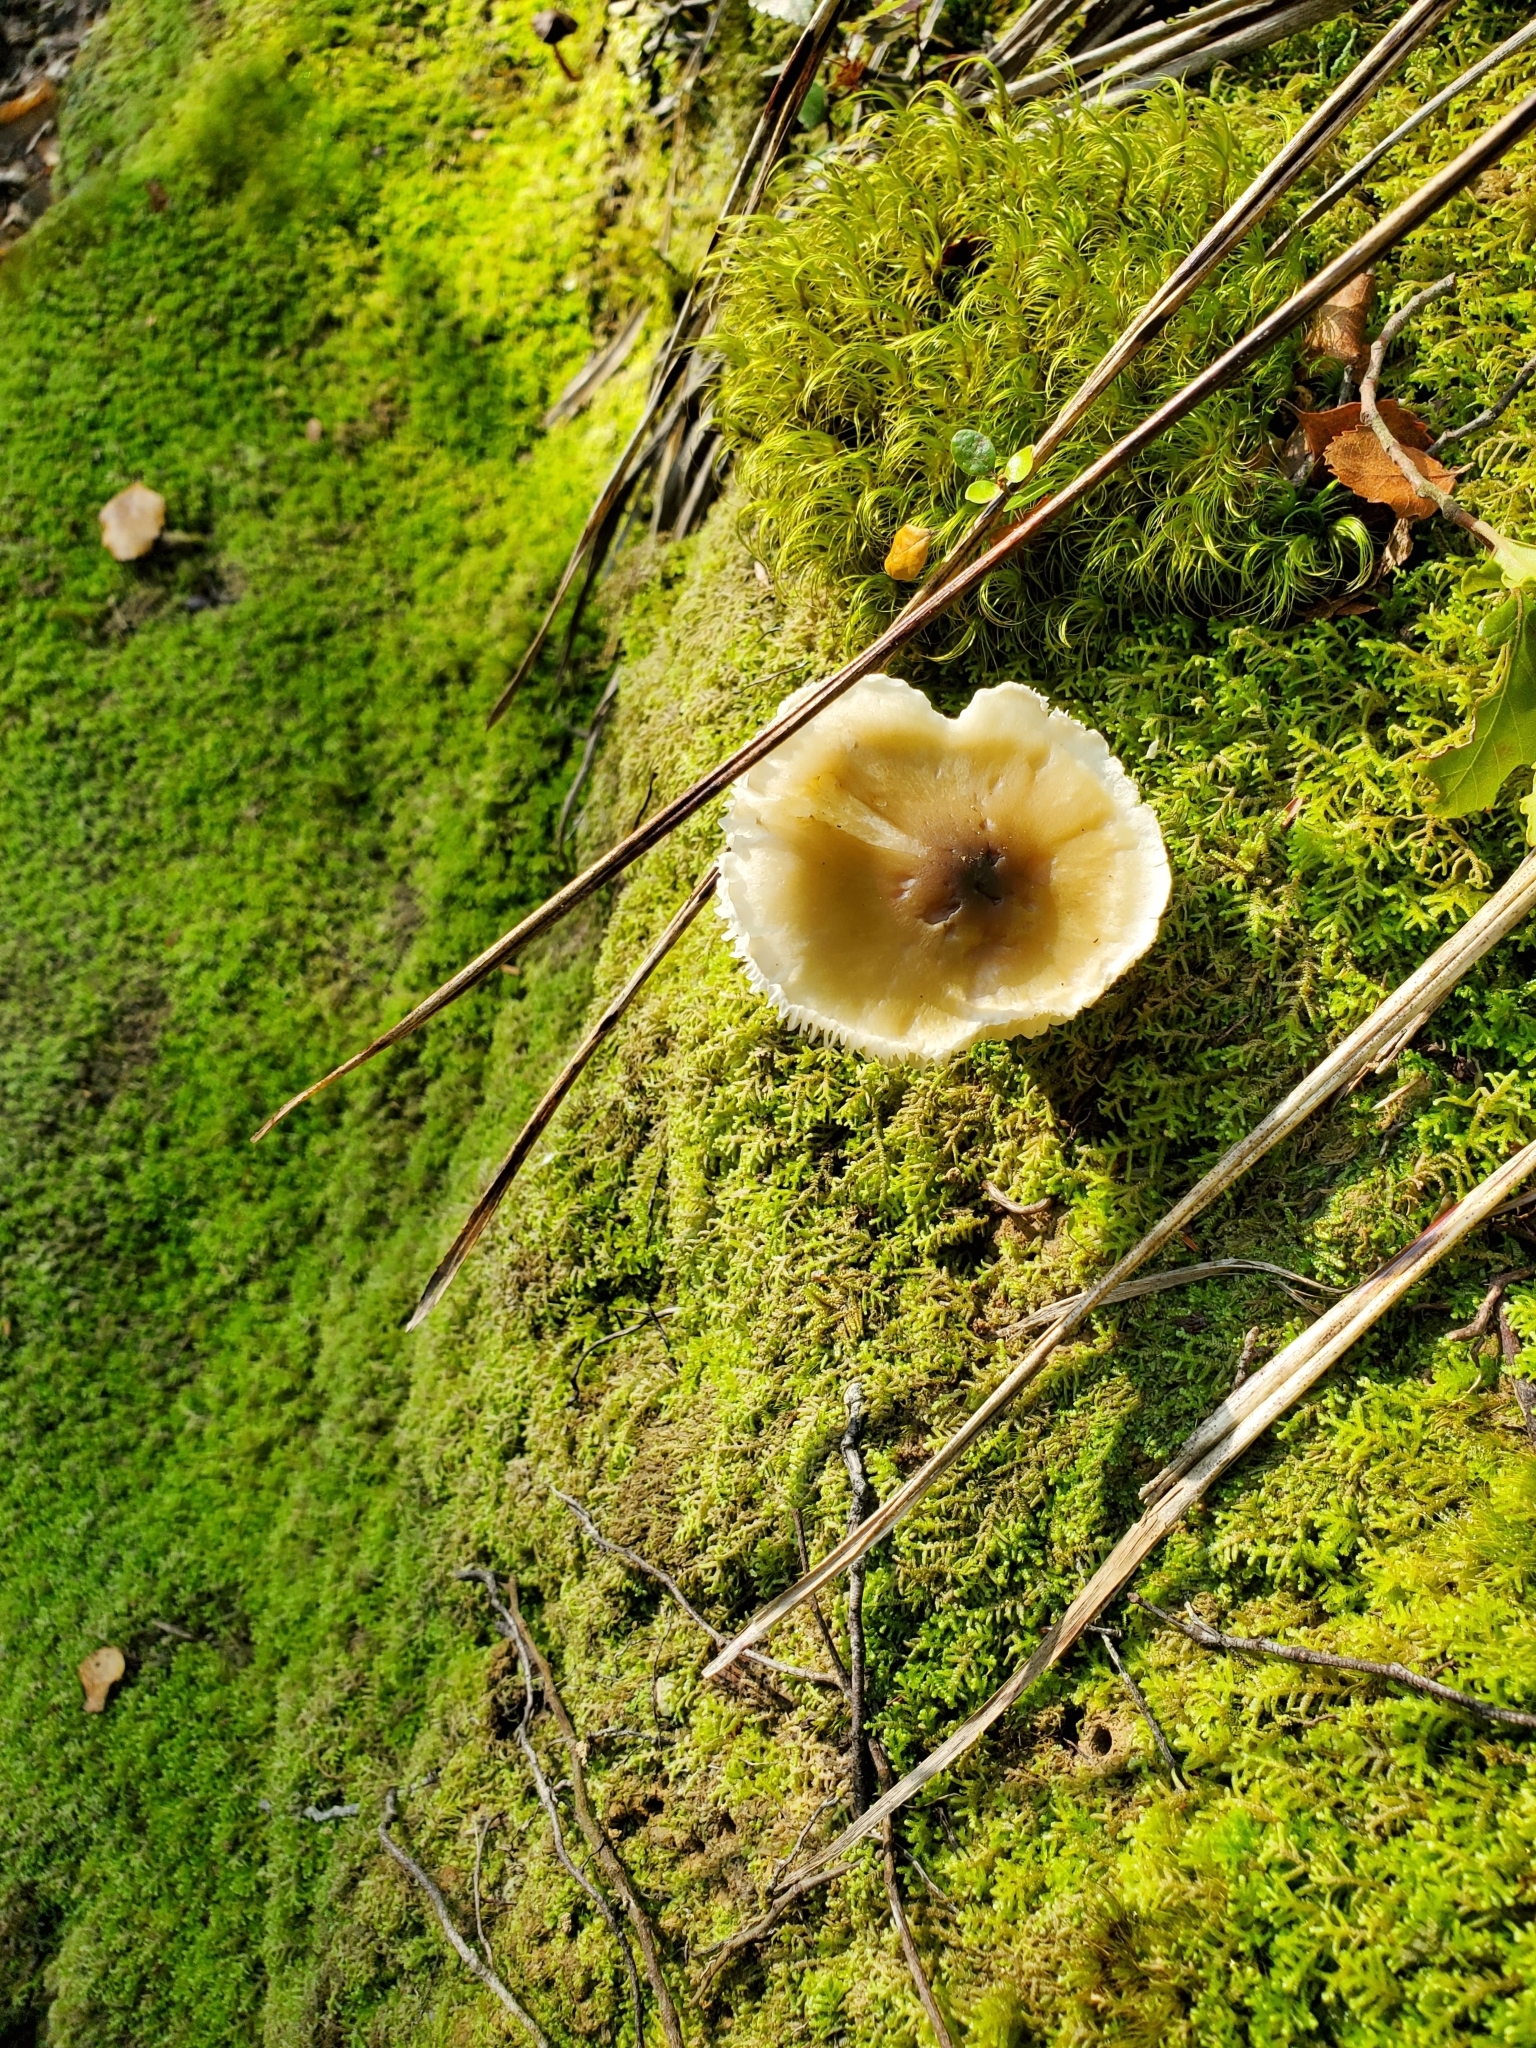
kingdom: Fungi
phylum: Basidiomycota
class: Agaricomycetes
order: Agaricales
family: Tricholomataceae
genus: Tricholoma
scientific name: Tricholoma viridiolivaceum
